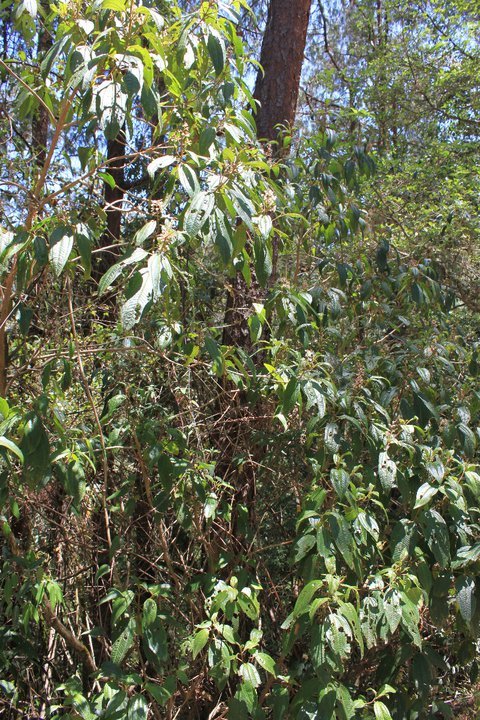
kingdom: Plantae
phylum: Tracheophyta
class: Magnoliopsida
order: Myrtales
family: Melastomataceae
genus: Miconia
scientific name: Miconia glaberrima
